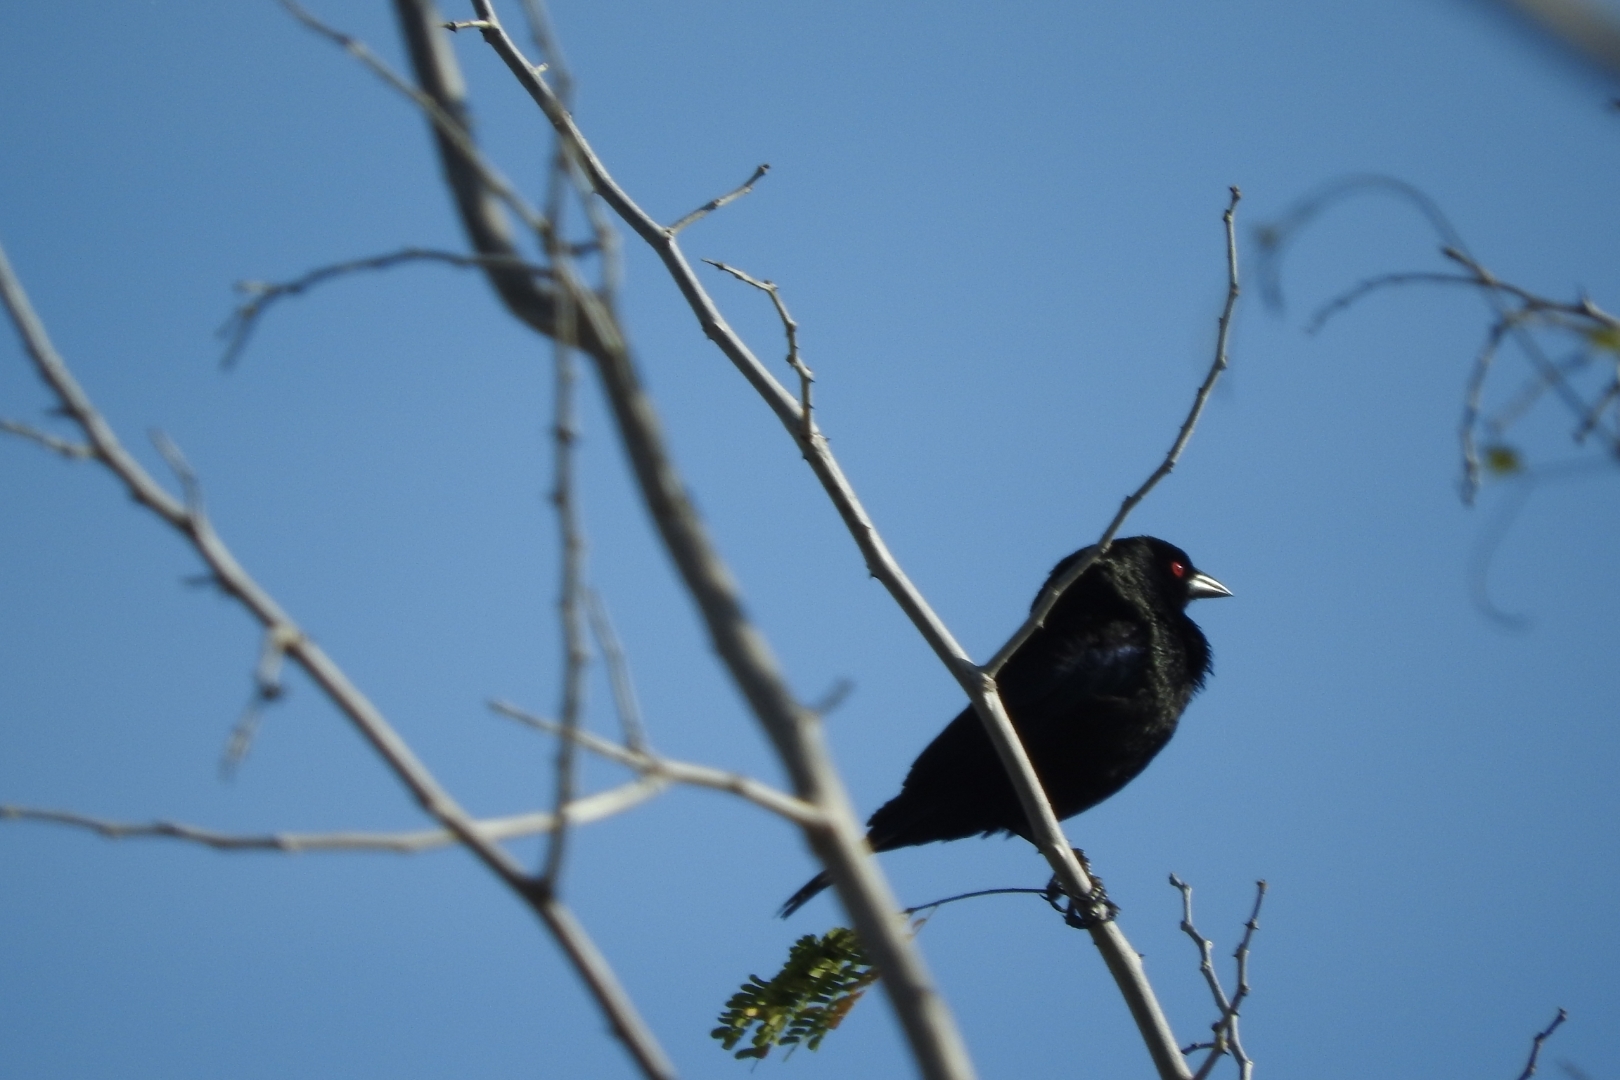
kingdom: Animalia
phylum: Chordata
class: Aves
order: Passeriformes
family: Icteridae
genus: Molothrus
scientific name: Molothrus aeneus
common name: Bronzed cowbird
